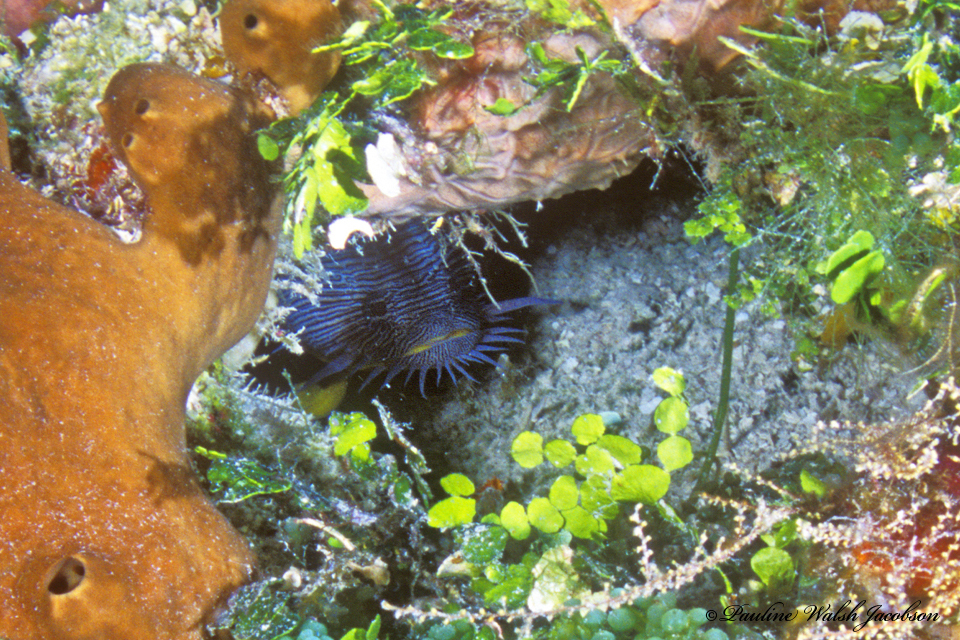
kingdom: Animalia
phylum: Chordata
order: Batrachoidiformes
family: Batrachoididae
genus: Sanopus
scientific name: Sanopus splendidus
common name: Splendid toadfish
